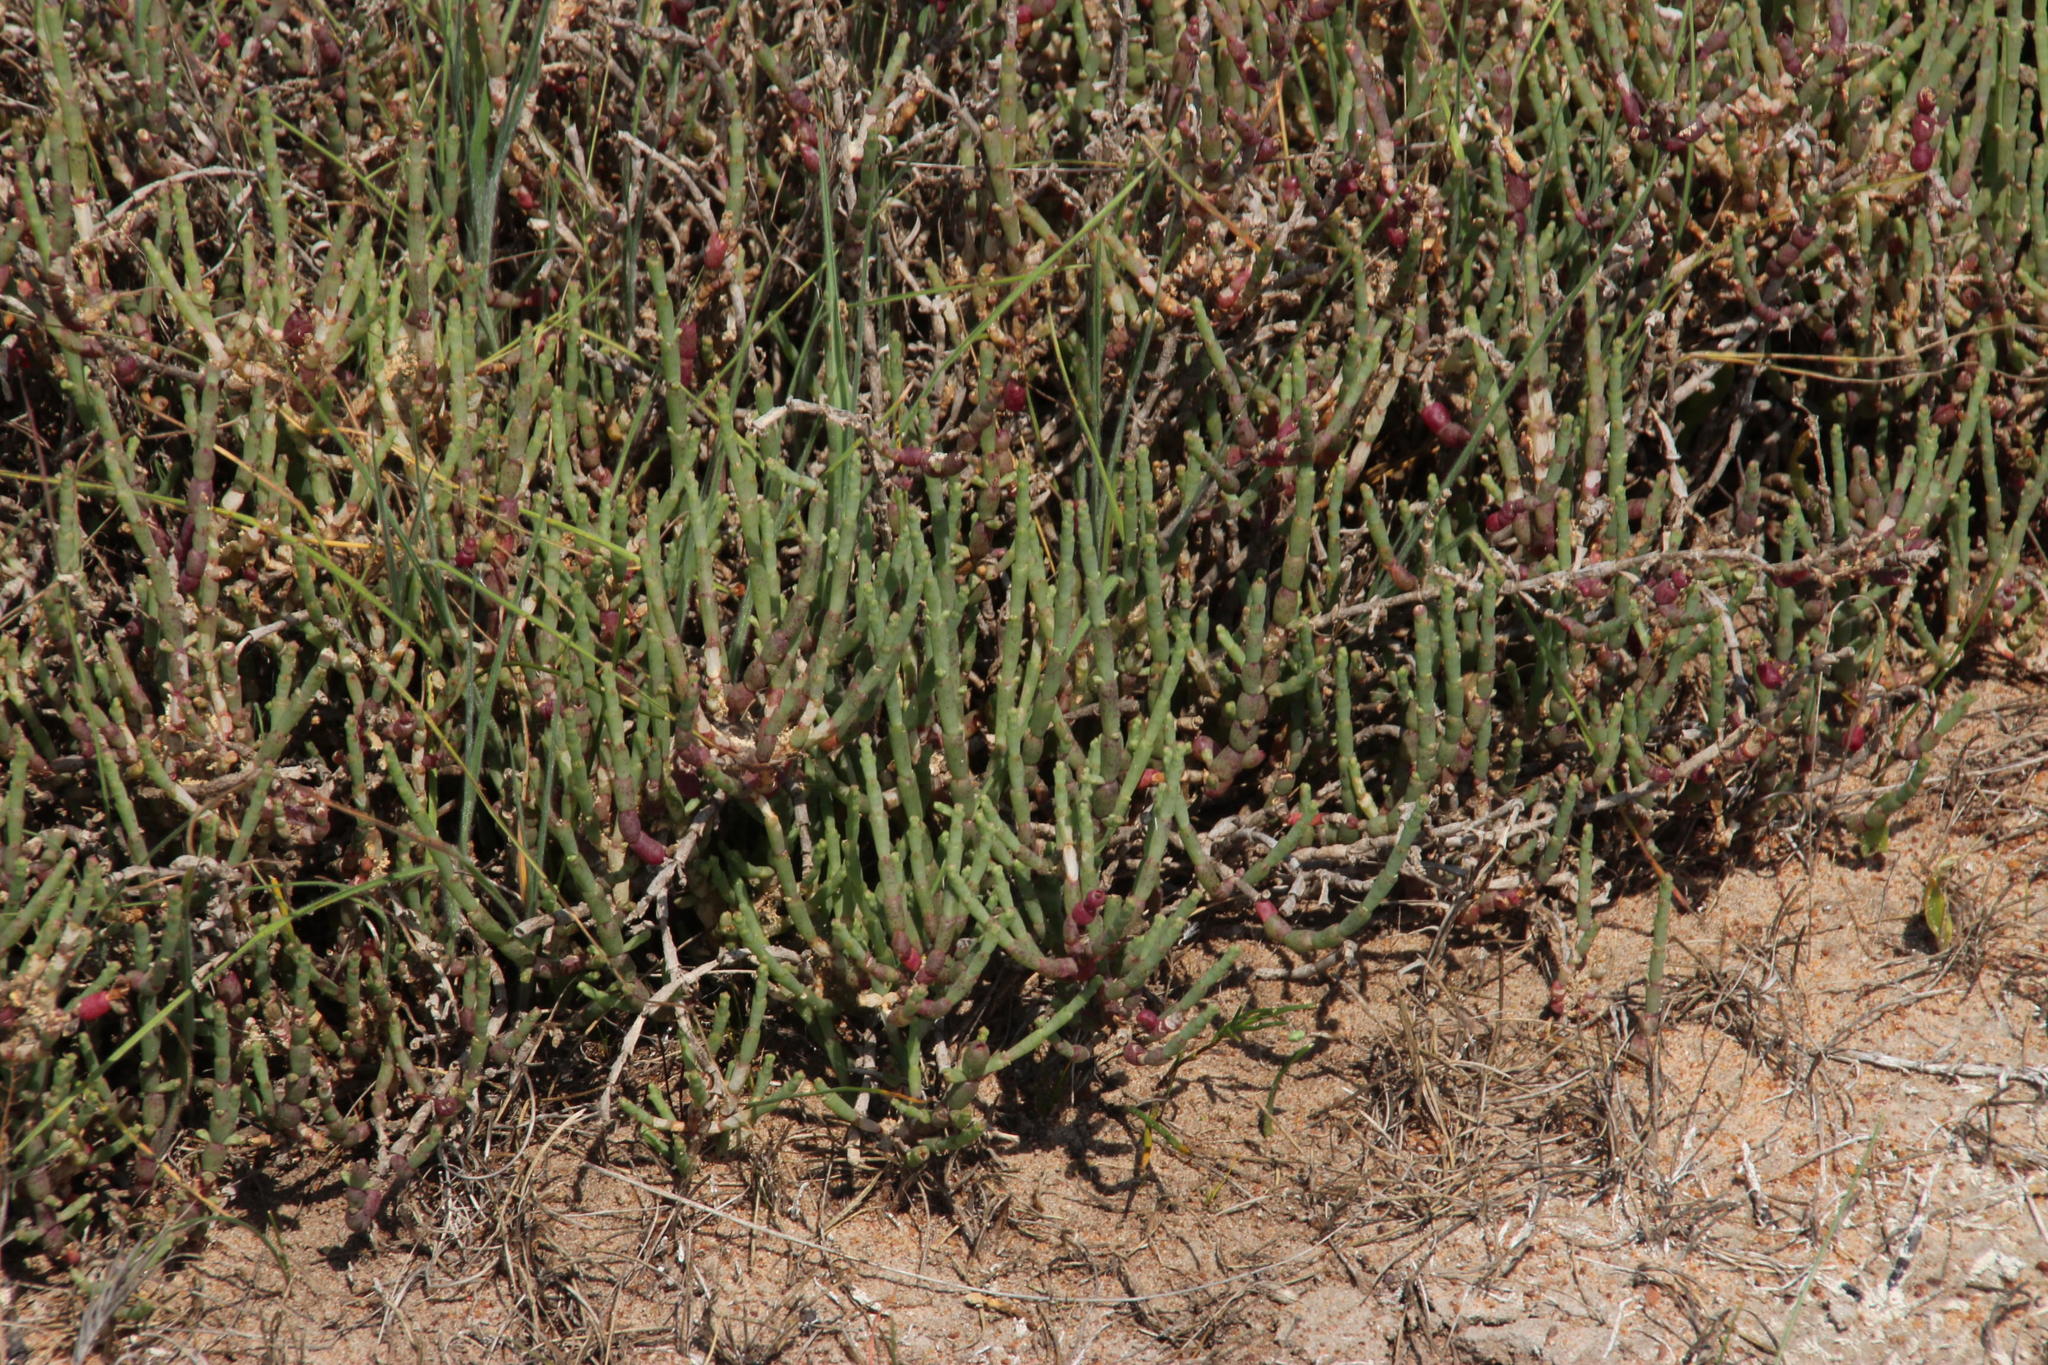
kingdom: Plantae
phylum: Tracheophyta
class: Magnoliopsida
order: Caryophyllales
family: Amaranthaceae
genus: Salicornia
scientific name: Salicornia pillansii
